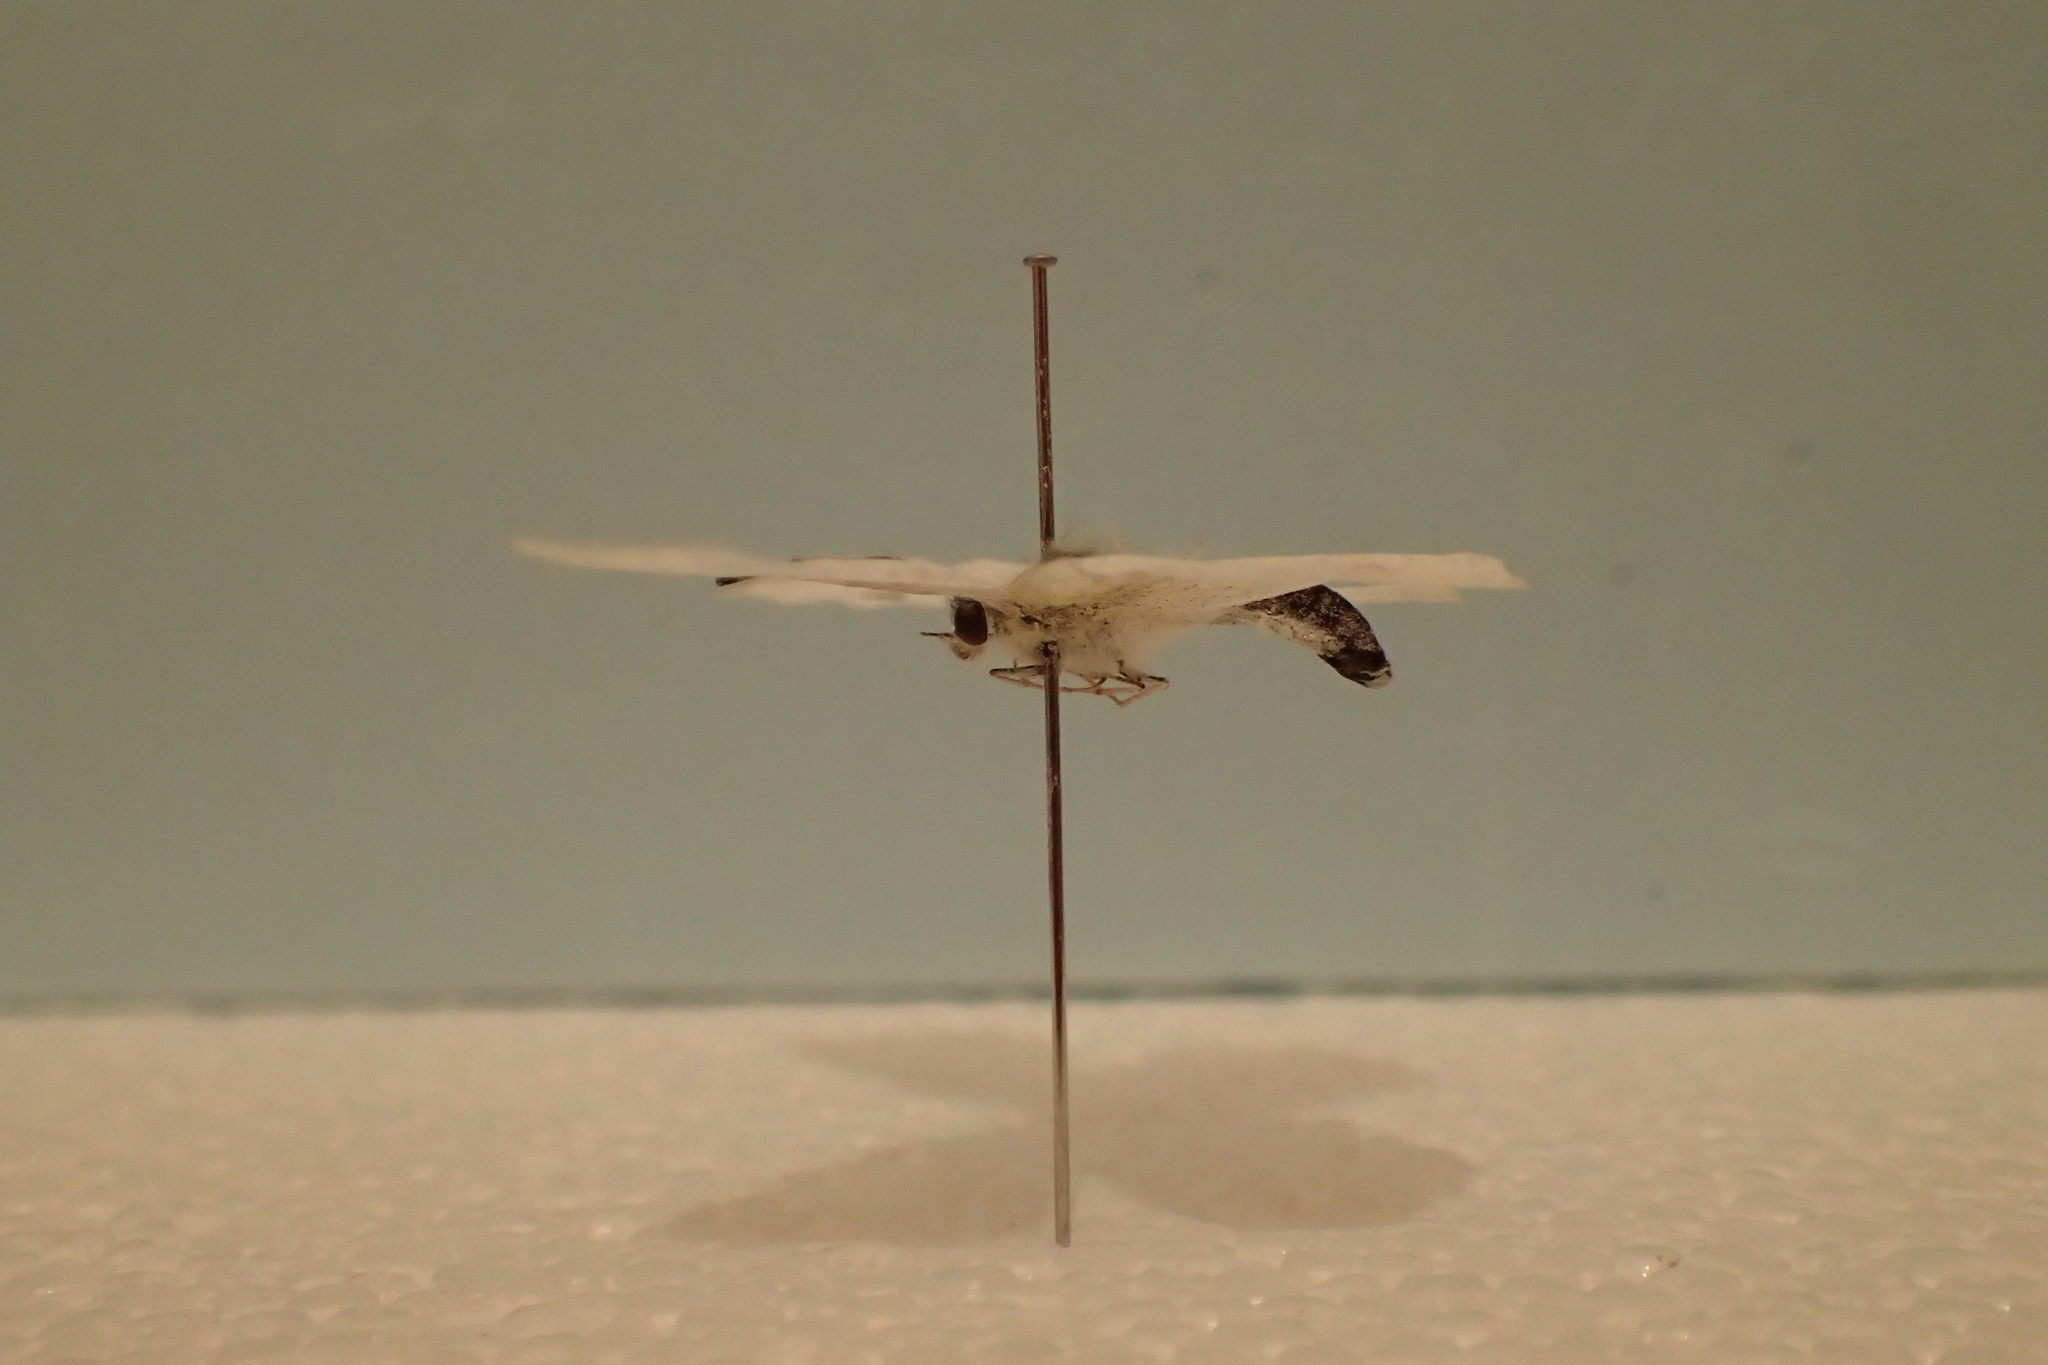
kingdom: Animalia
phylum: Arthropoda
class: Insecta
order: Lepidoptera
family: Pieridae
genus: Pieris
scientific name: Pieris rapae
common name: Small white
